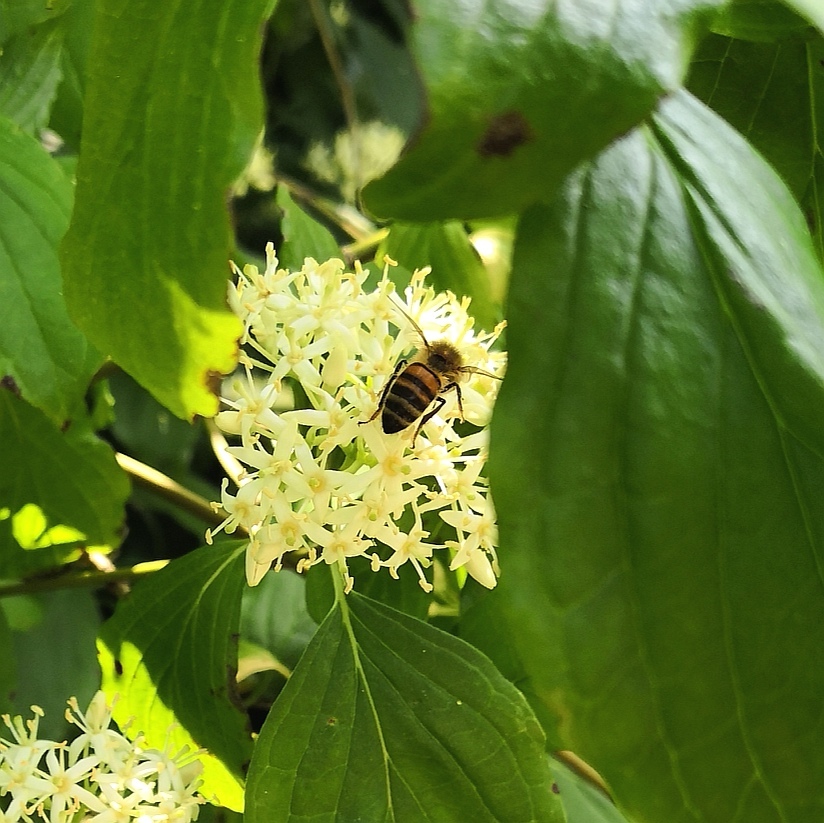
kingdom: Animalia
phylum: Arthropoda
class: Insecta
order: Hymenoptera
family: Apidae
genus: Apis
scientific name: Apis mellifera
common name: Honey bee
